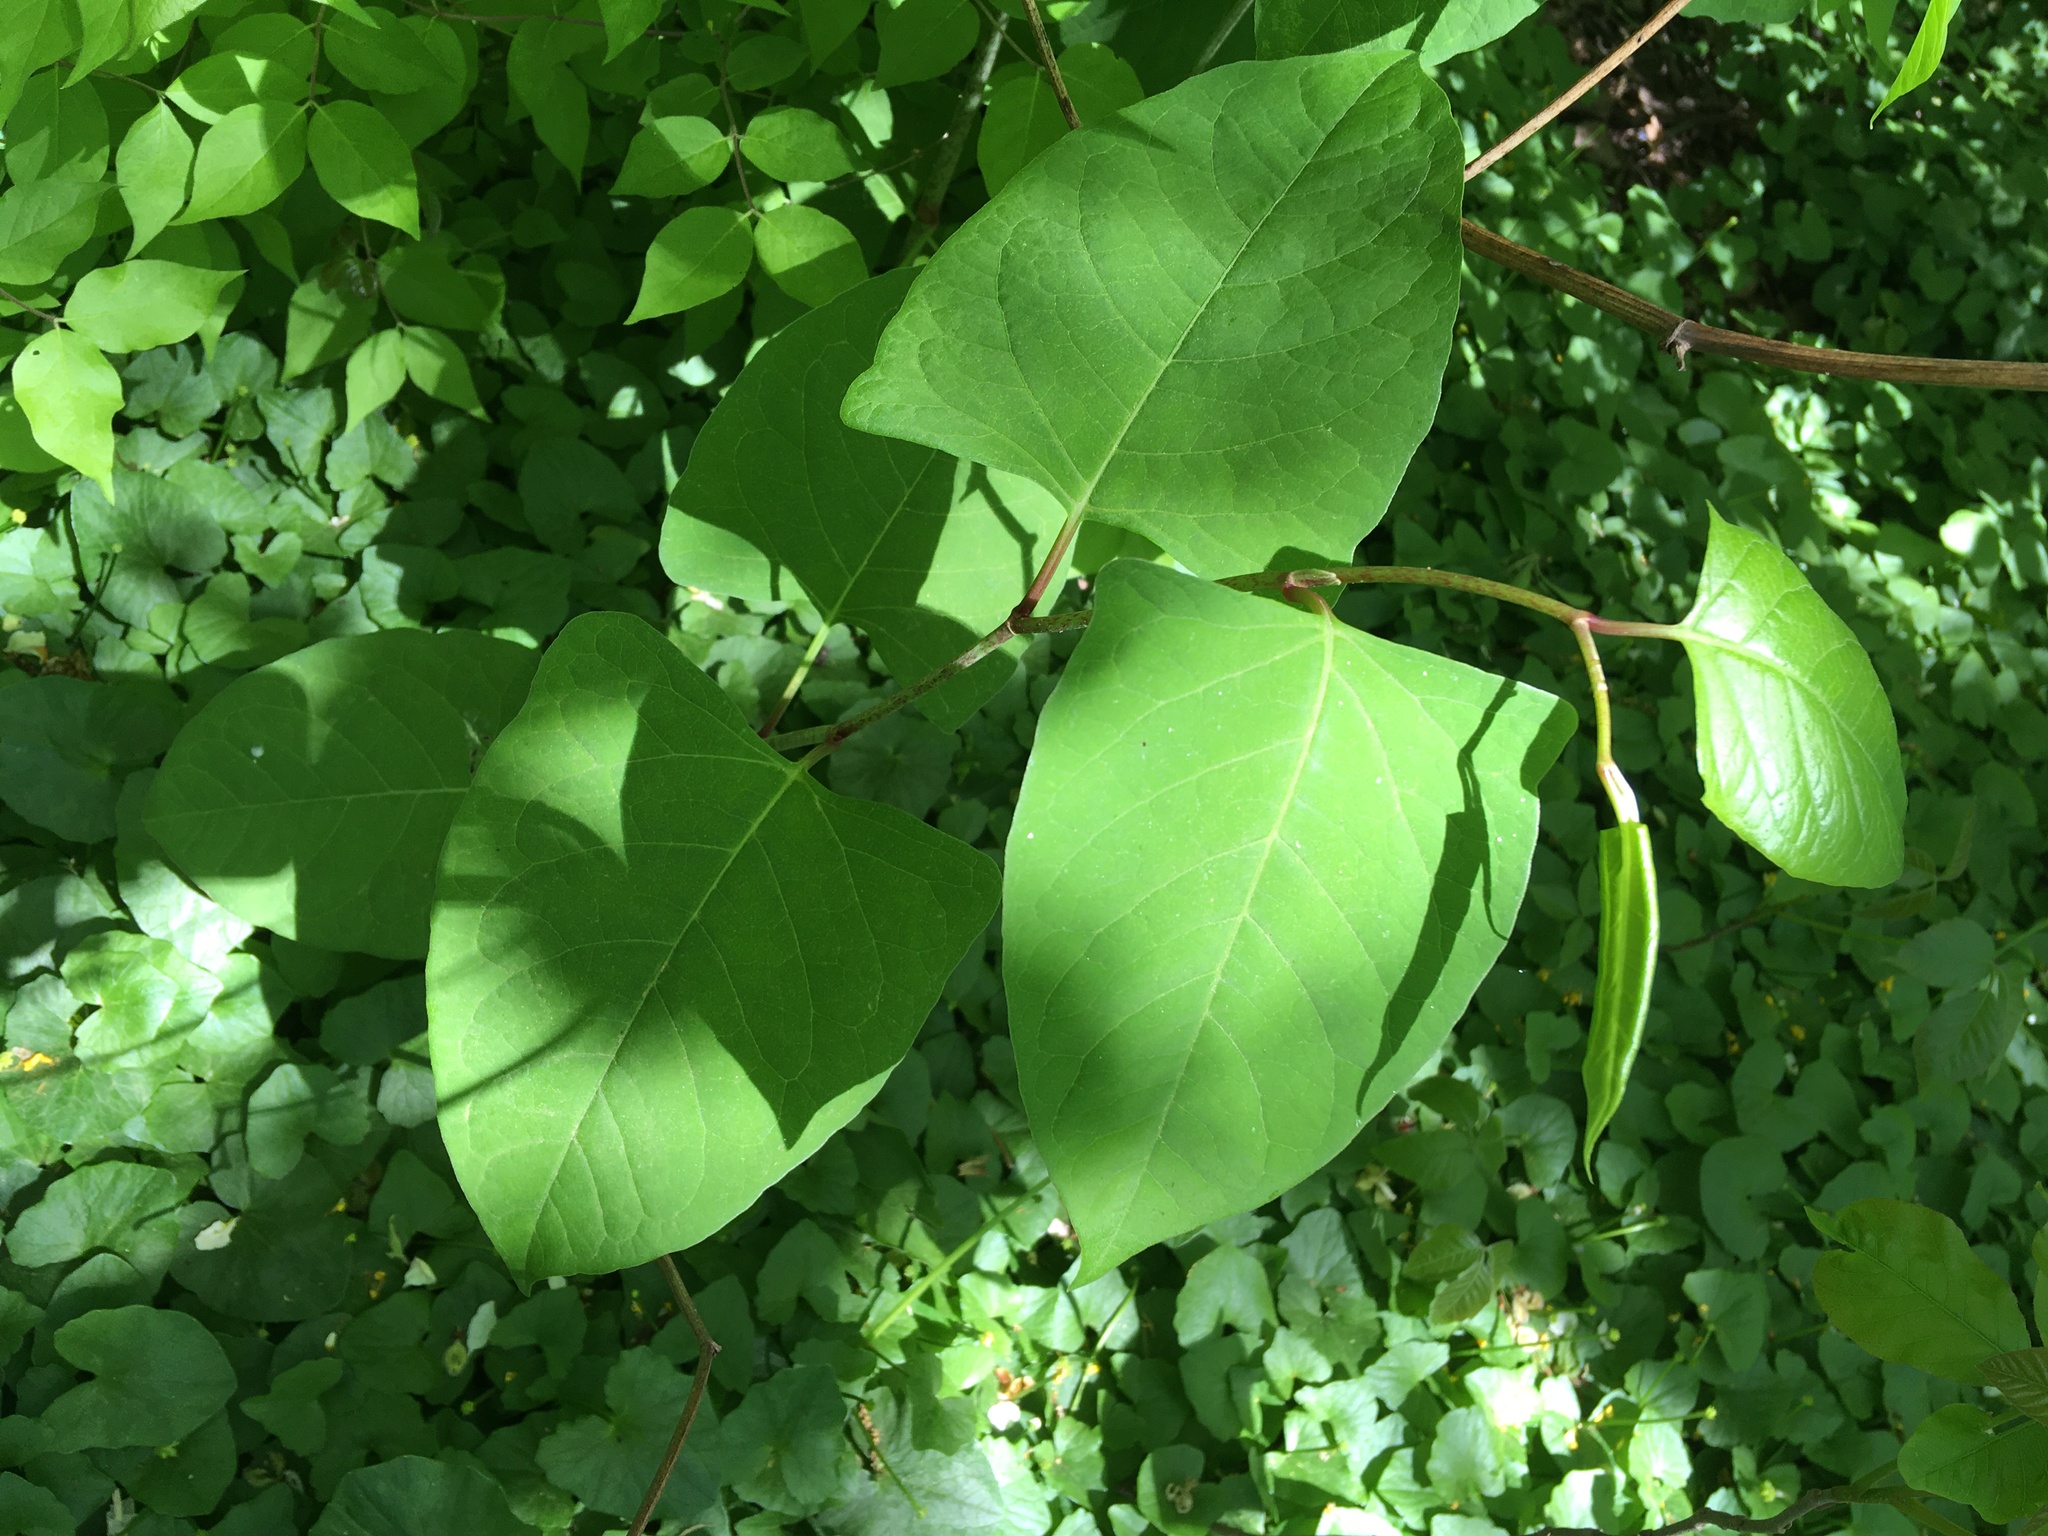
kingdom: Plantae
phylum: Tracheophyta
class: Magnoliopsida
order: Caryophyllales
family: Polygonaceae
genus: Reynoutria
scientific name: Reynoutria japonica
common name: Japanese knotweed
